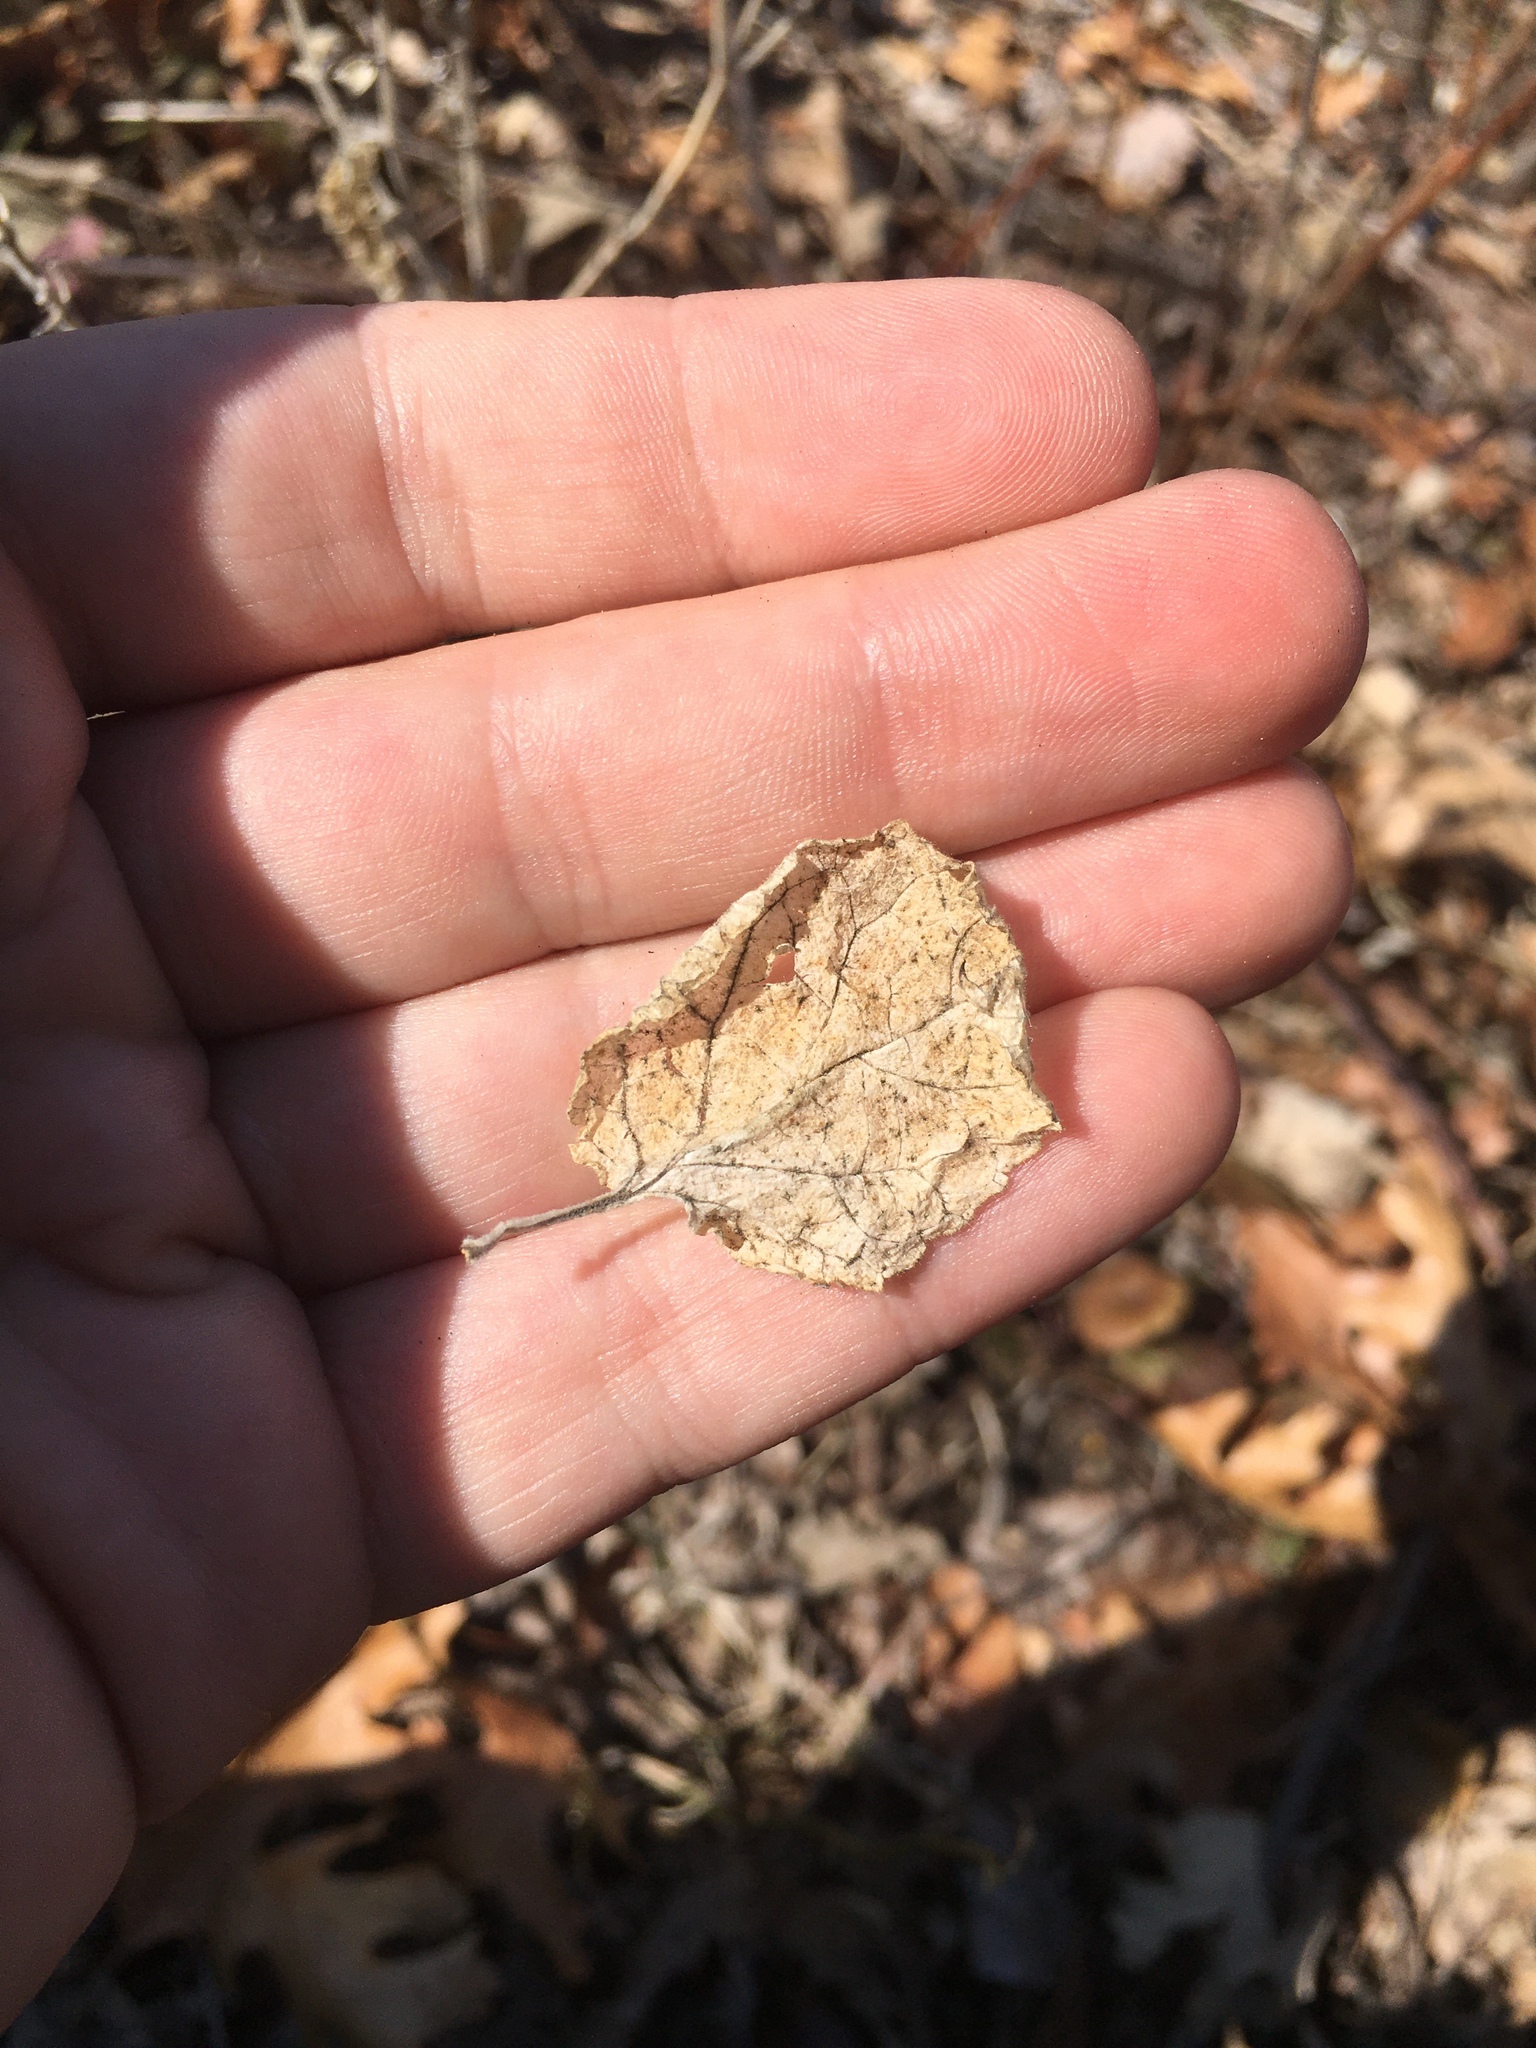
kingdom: Plantae
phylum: Tracheophyta
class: Magnoliopsida
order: Lamiales
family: Lamiaceae
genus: Scutellaria
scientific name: Scutellaria ovata
